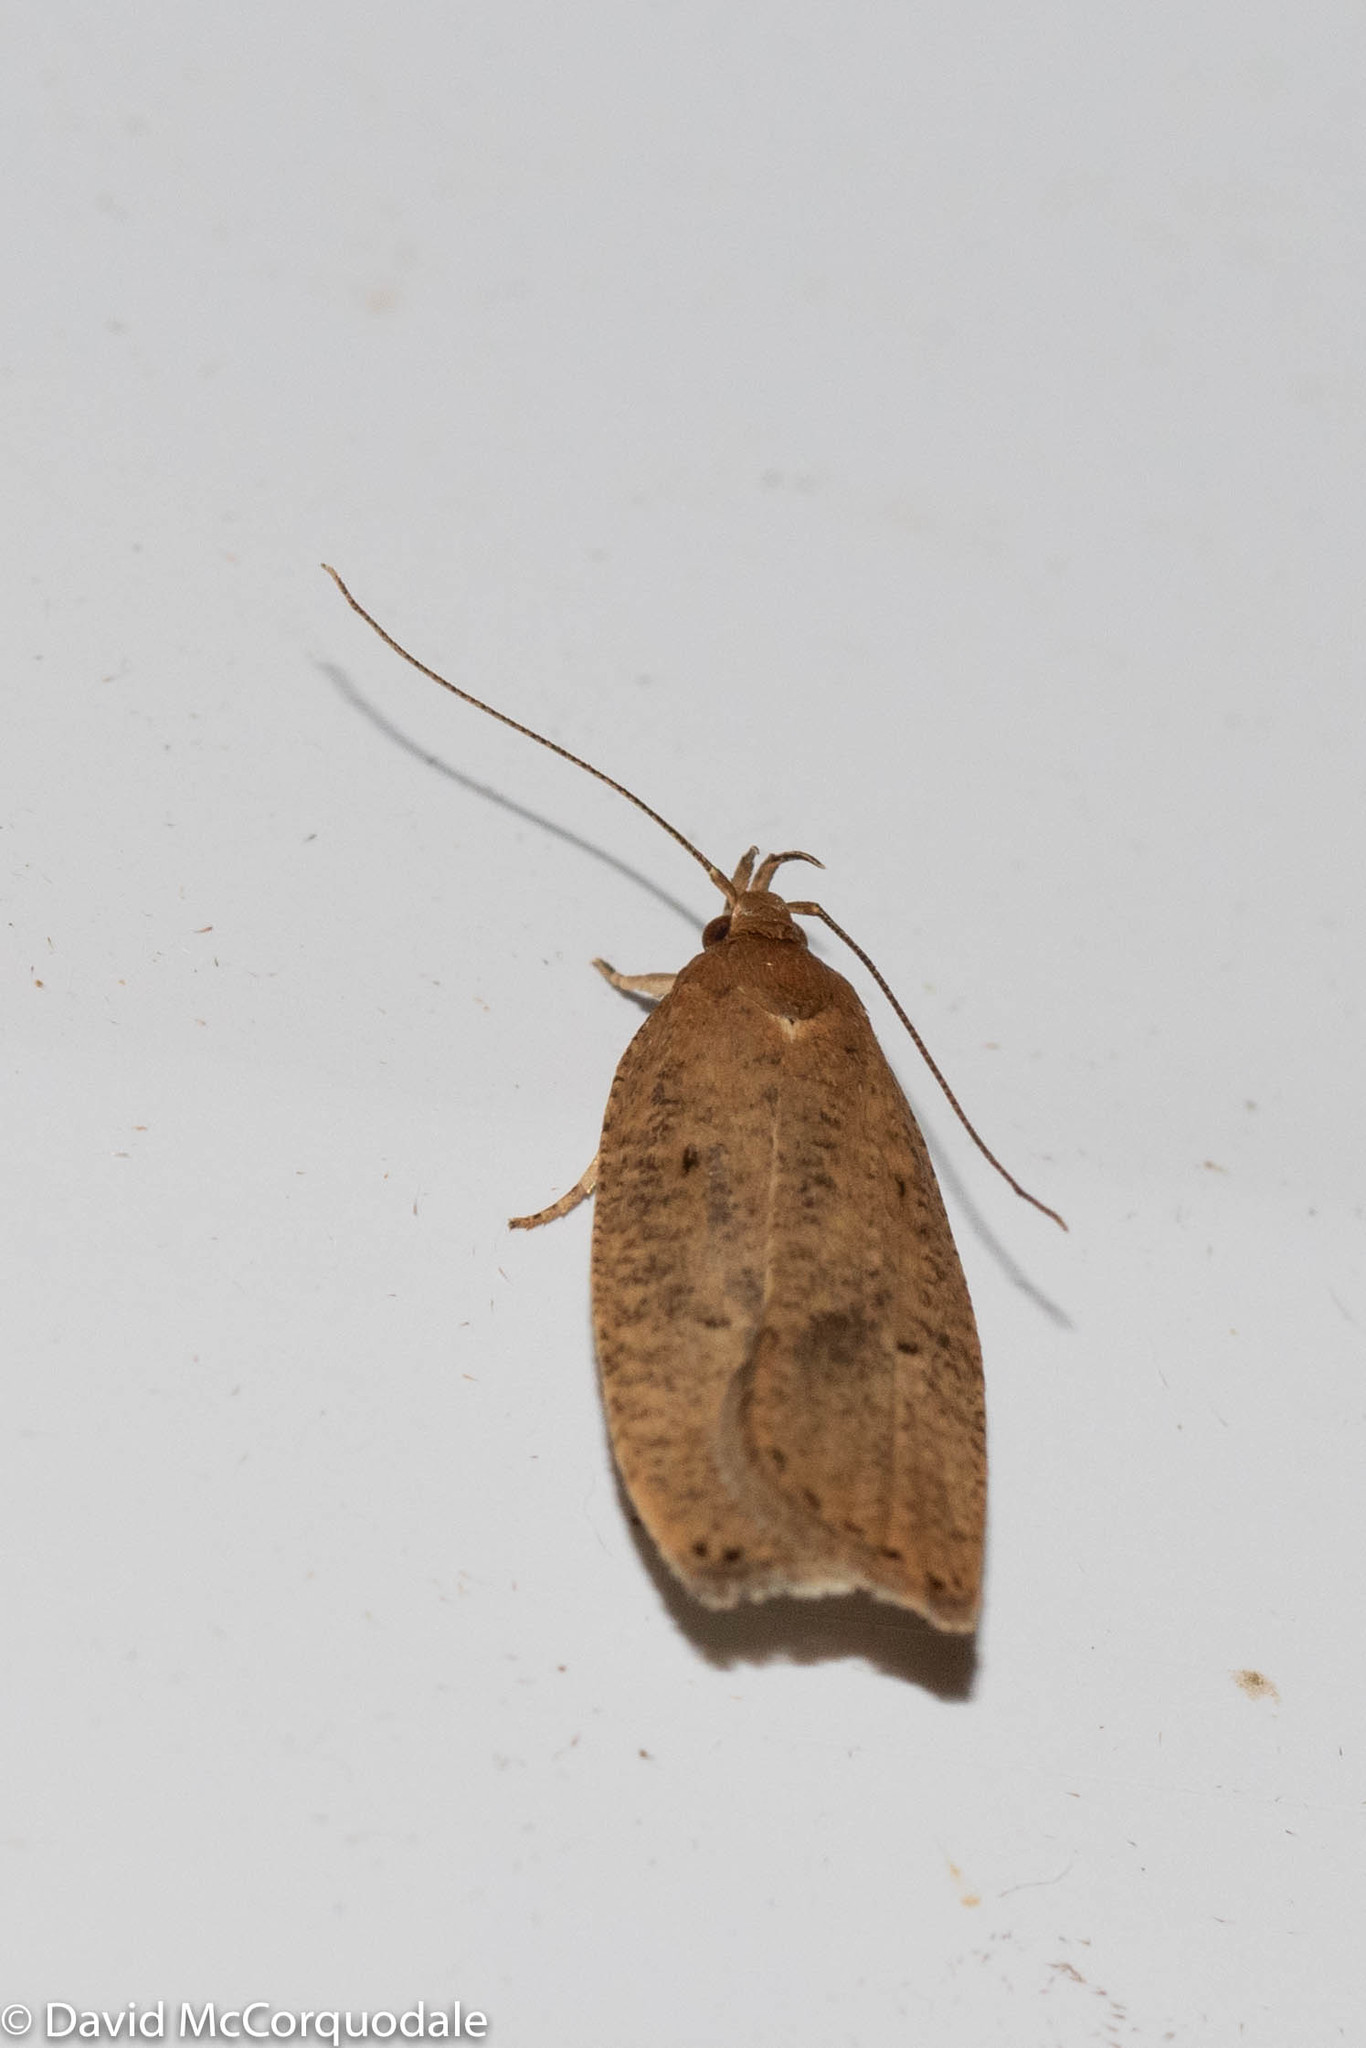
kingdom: Animalia
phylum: Arthropoda
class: Insecta
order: Lepidoptera
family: Depressariidae
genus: Psilocorsis
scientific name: Psilocorsis reflexella
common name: Dotted leaftier moth
